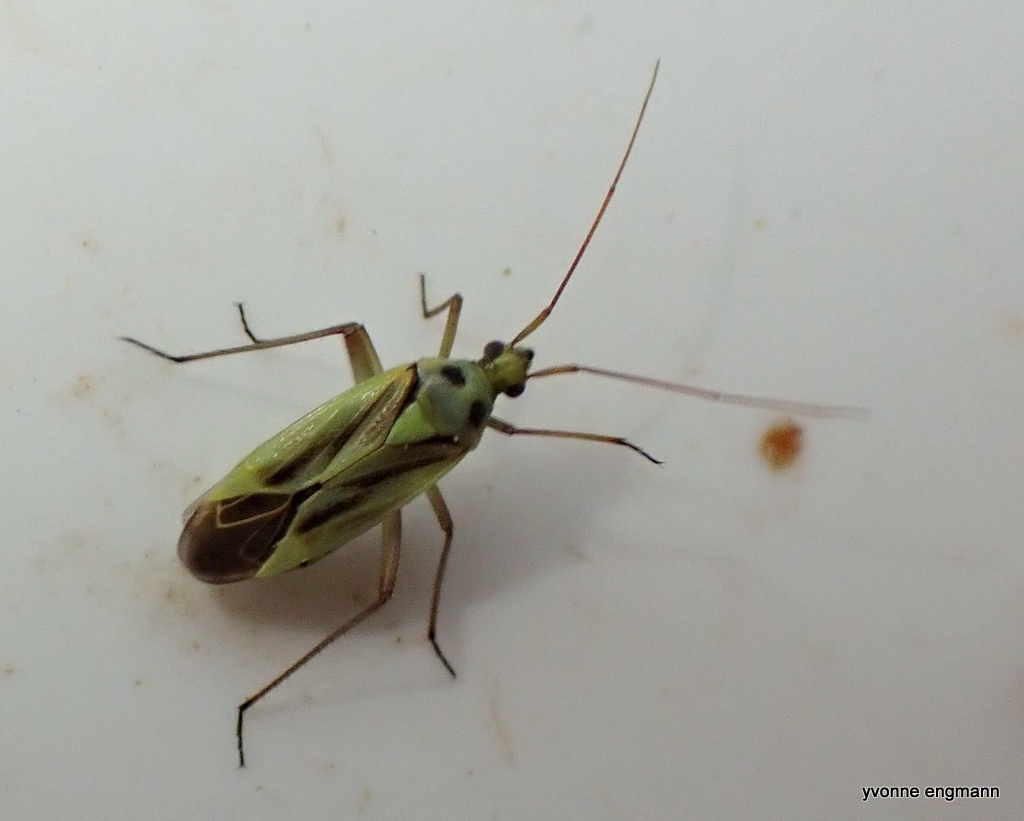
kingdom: Animalia
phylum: Arthropoda
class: Insecta
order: Hemiptera
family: Miridae
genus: Stenotus
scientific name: Stenotus binotatus
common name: Plant bug
